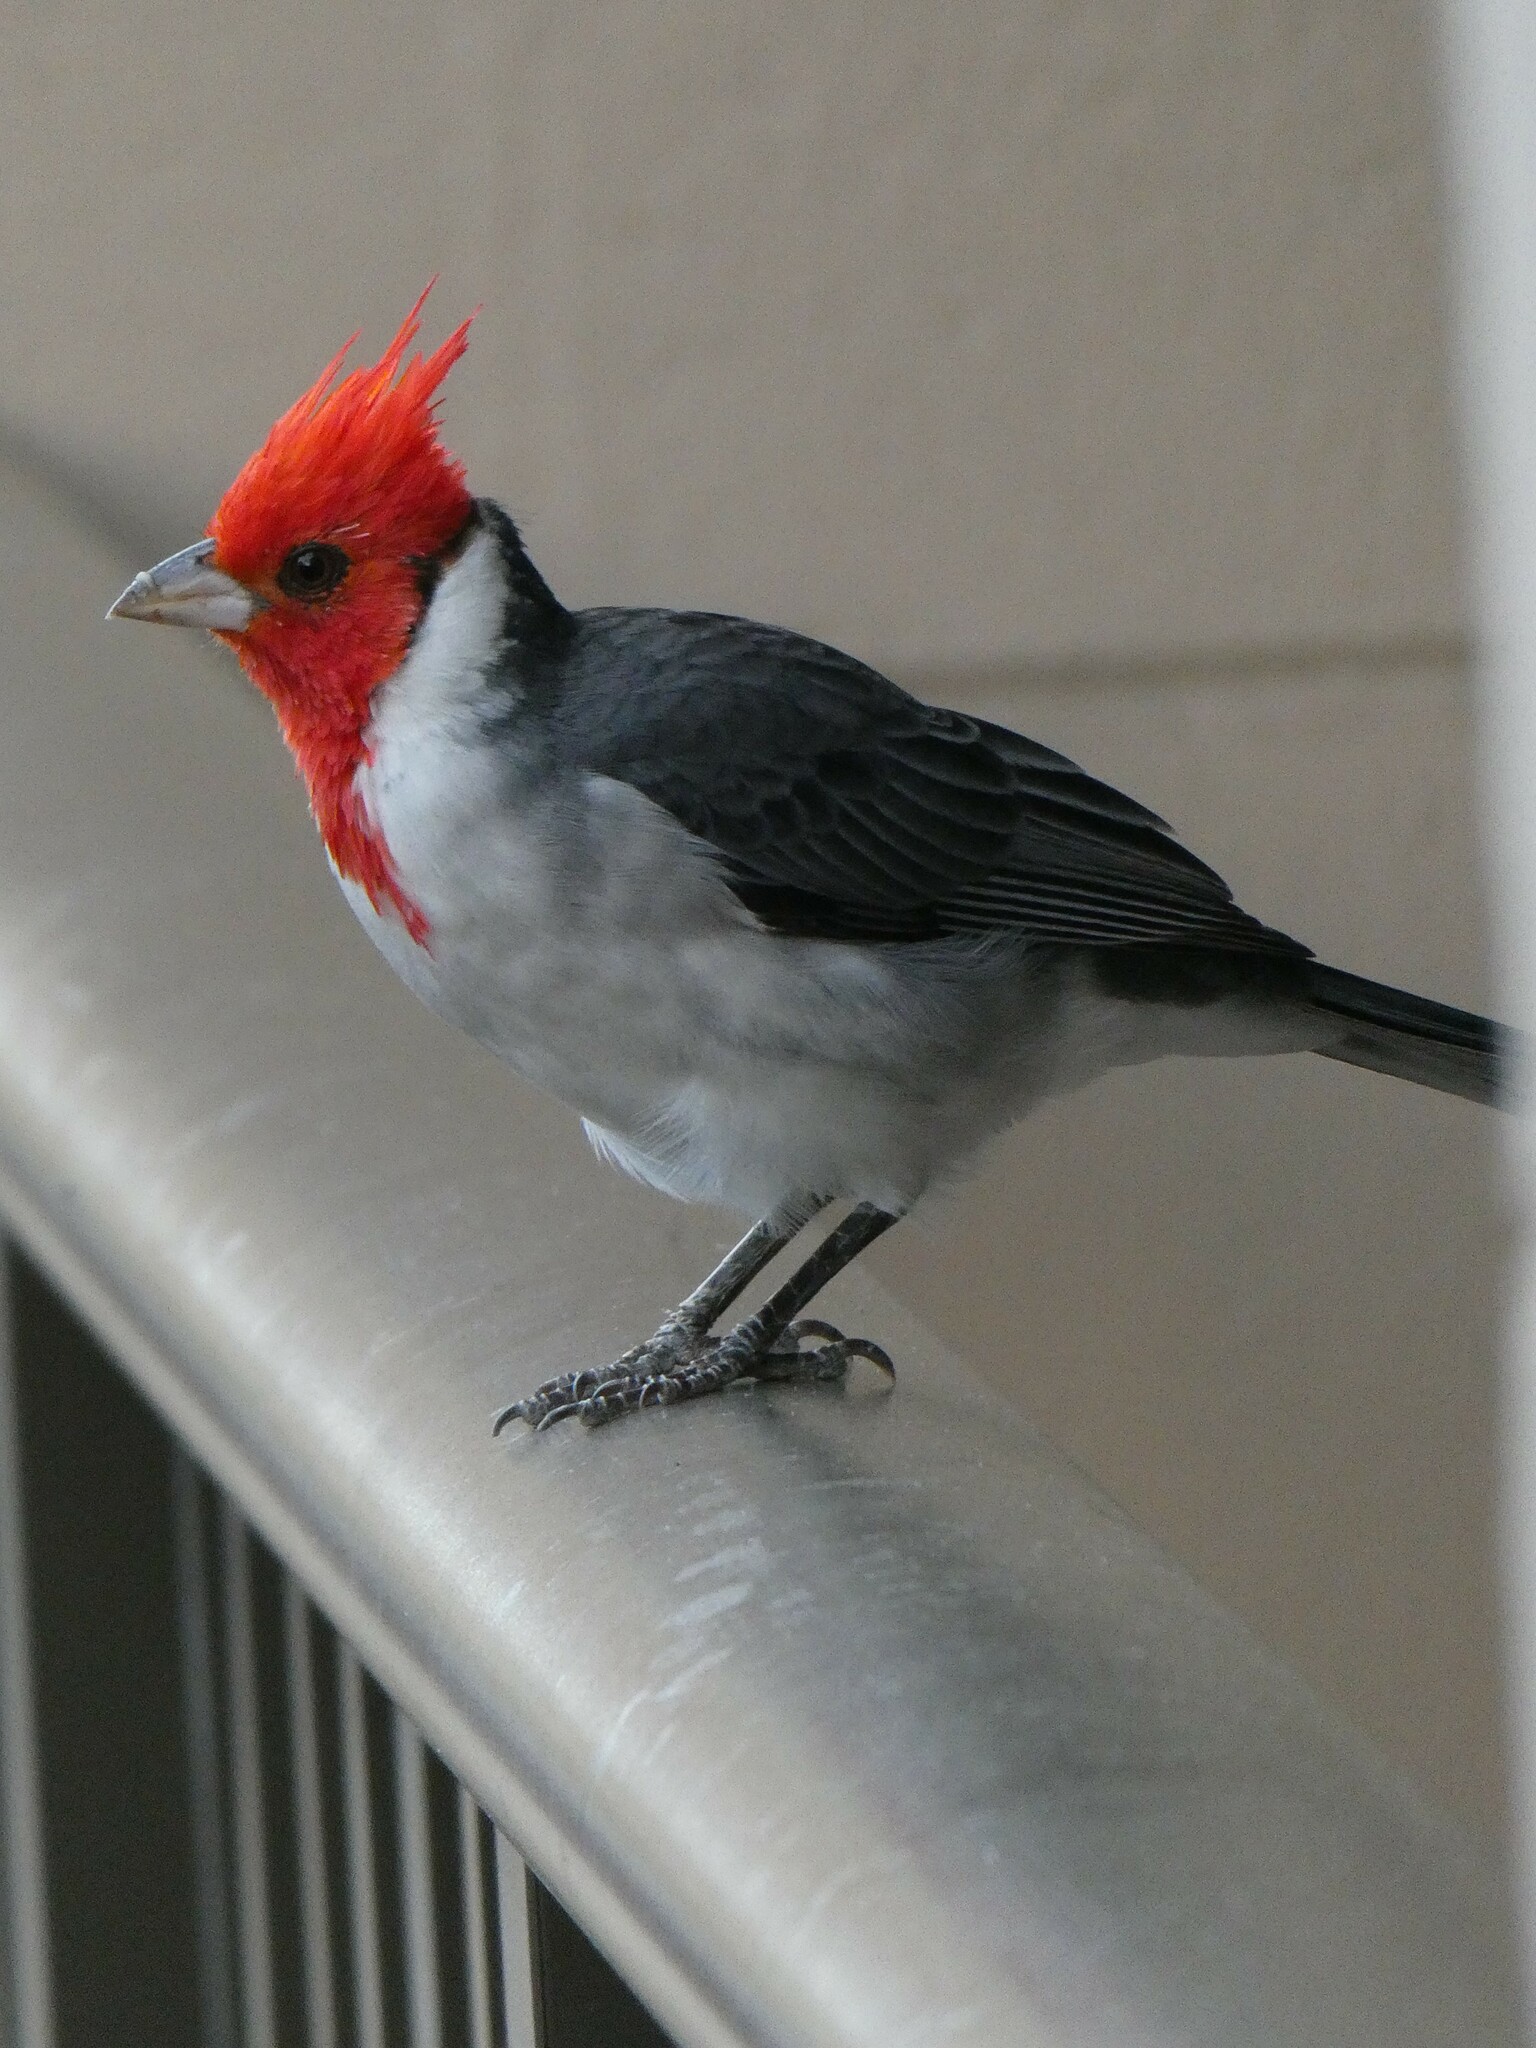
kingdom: Animalia
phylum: Chordata
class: Aves
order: Passeriformes
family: Thraupidae
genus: Paroaria
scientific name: Paroaria coronata
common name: Red-crested cardinal
